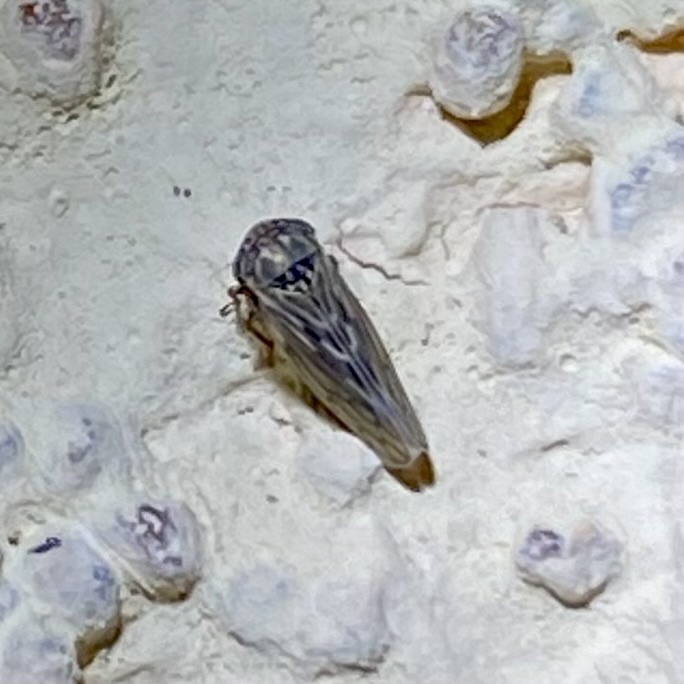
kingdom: Animalia
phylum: Arthropoda
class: Insecta
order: Hemiptera
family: Cicadellidae
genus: Ceratagallia
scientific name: Ceratagallia
